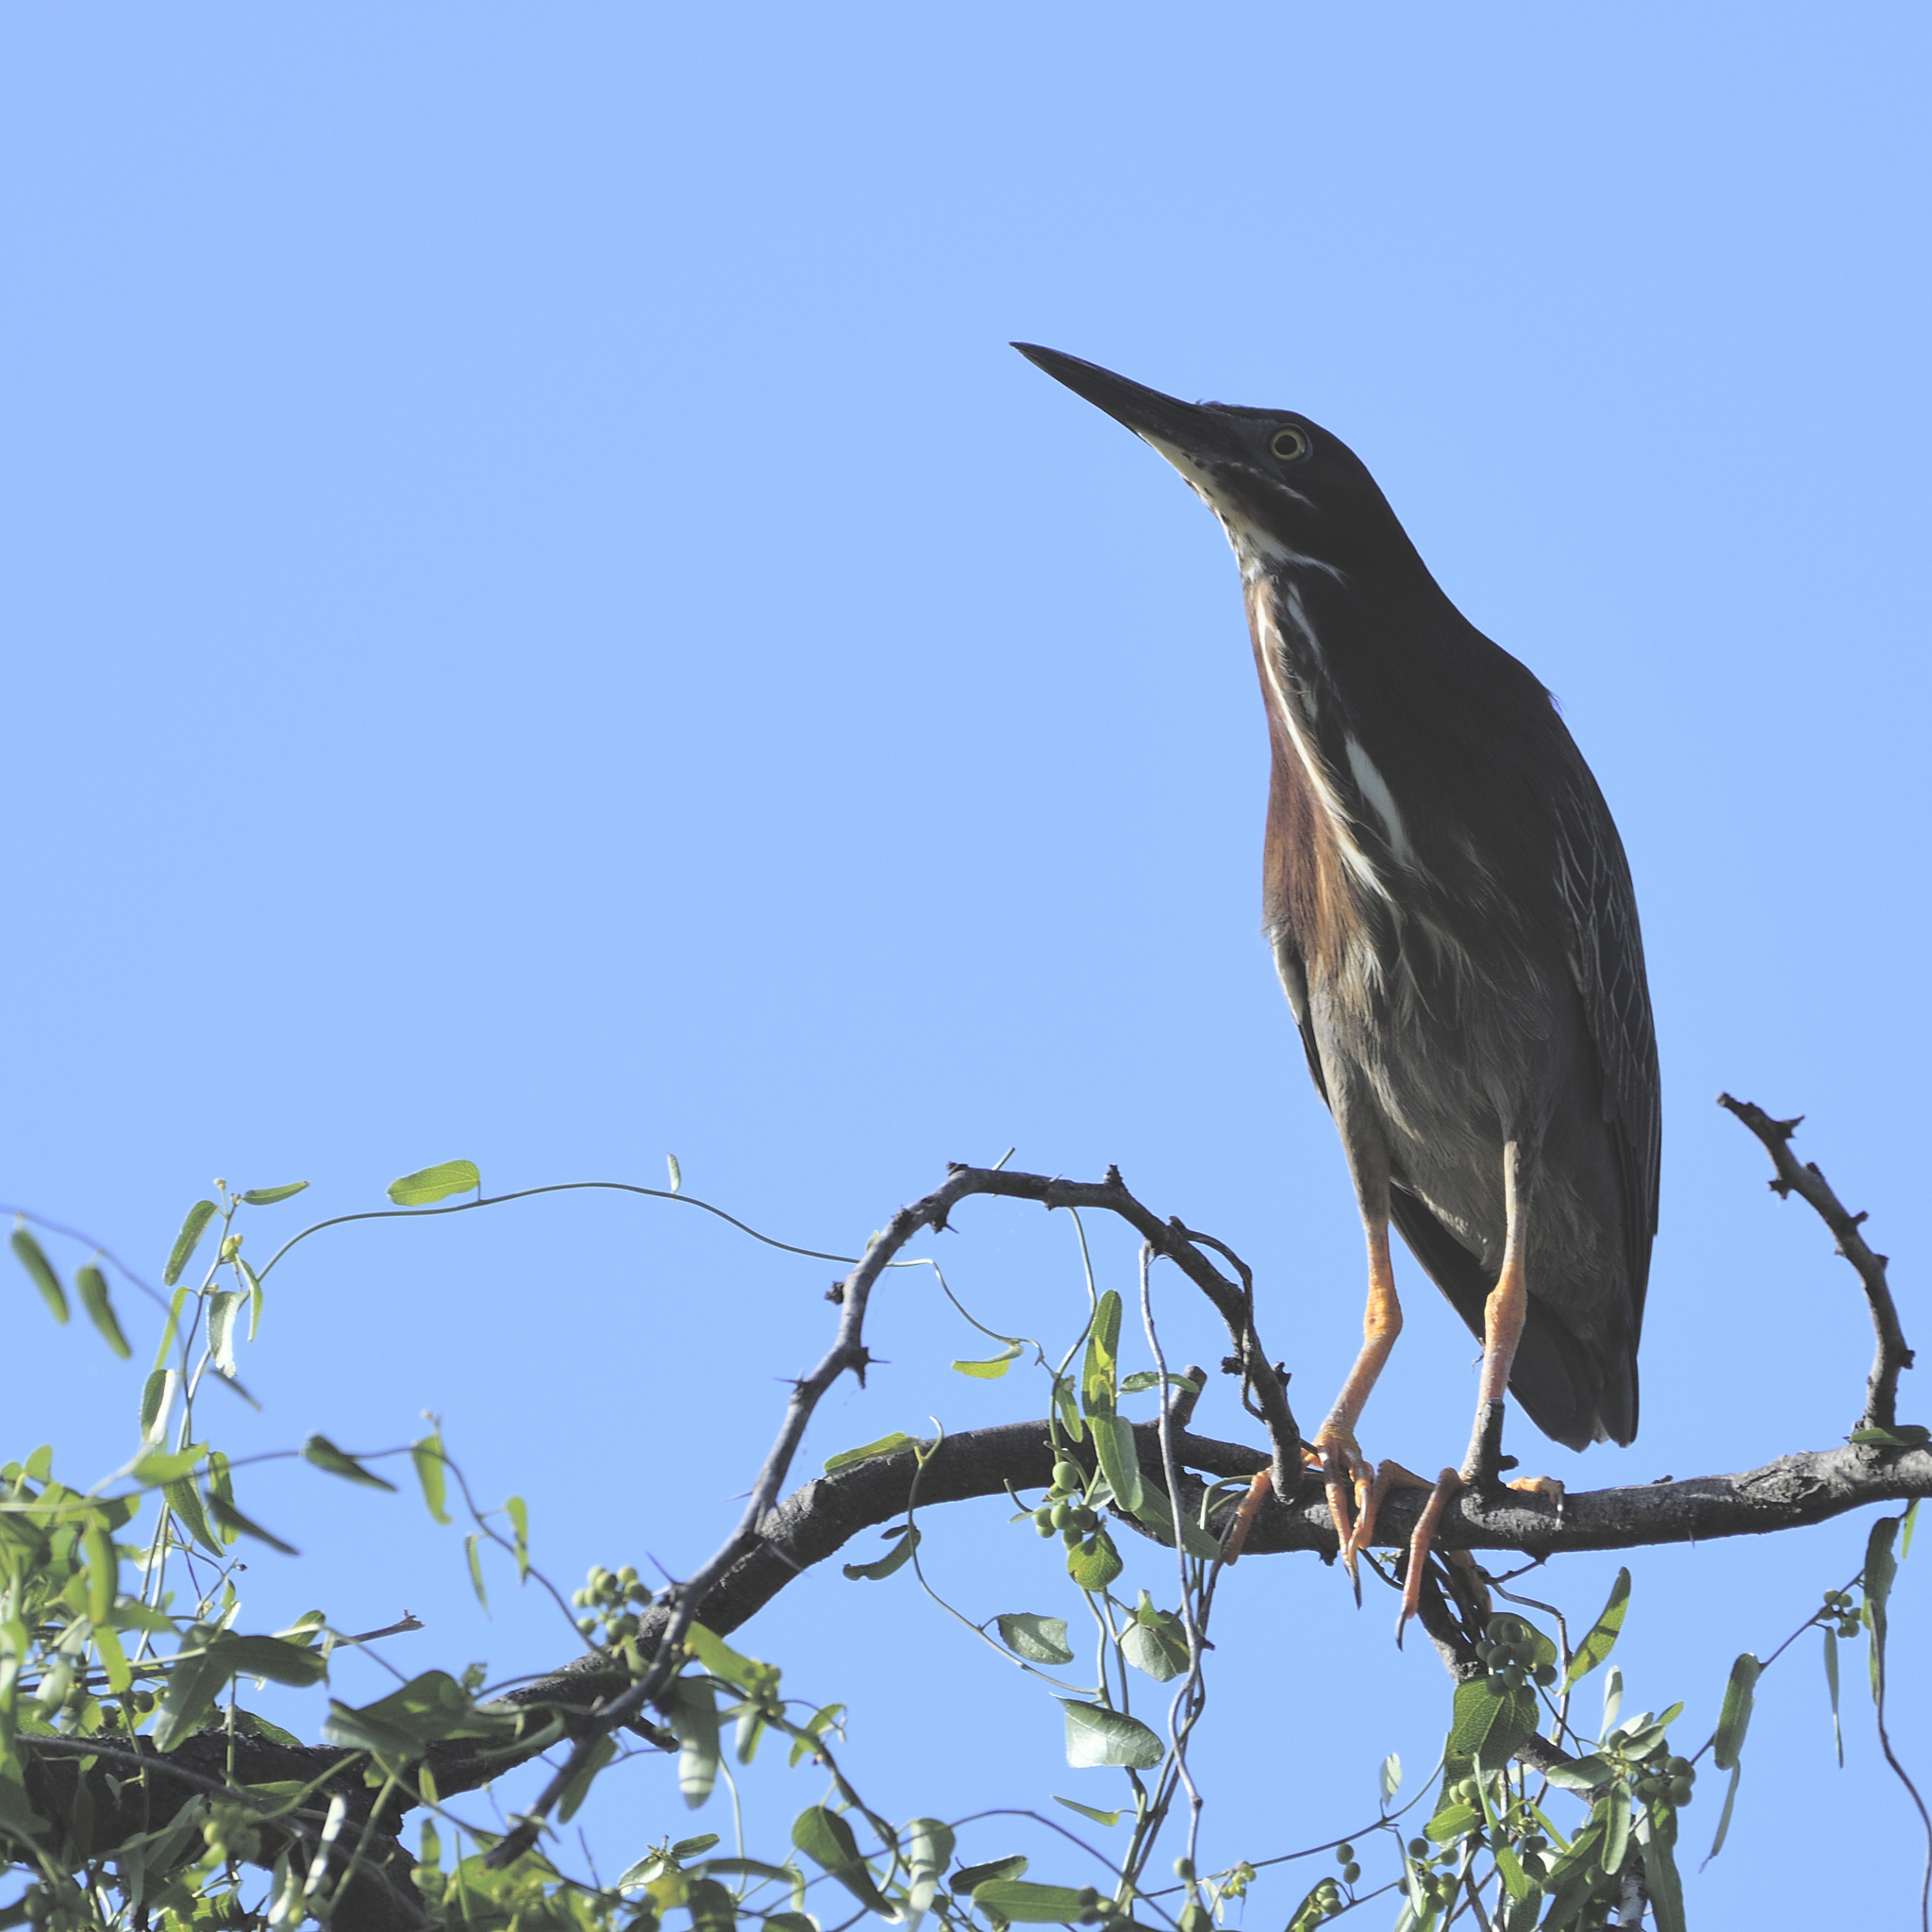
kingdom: Animalia
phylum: Chordata
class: Aves
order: Pelecaniformes
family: Ardeidae
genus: Butorides
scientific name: Butorides virescens
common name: Green heron
